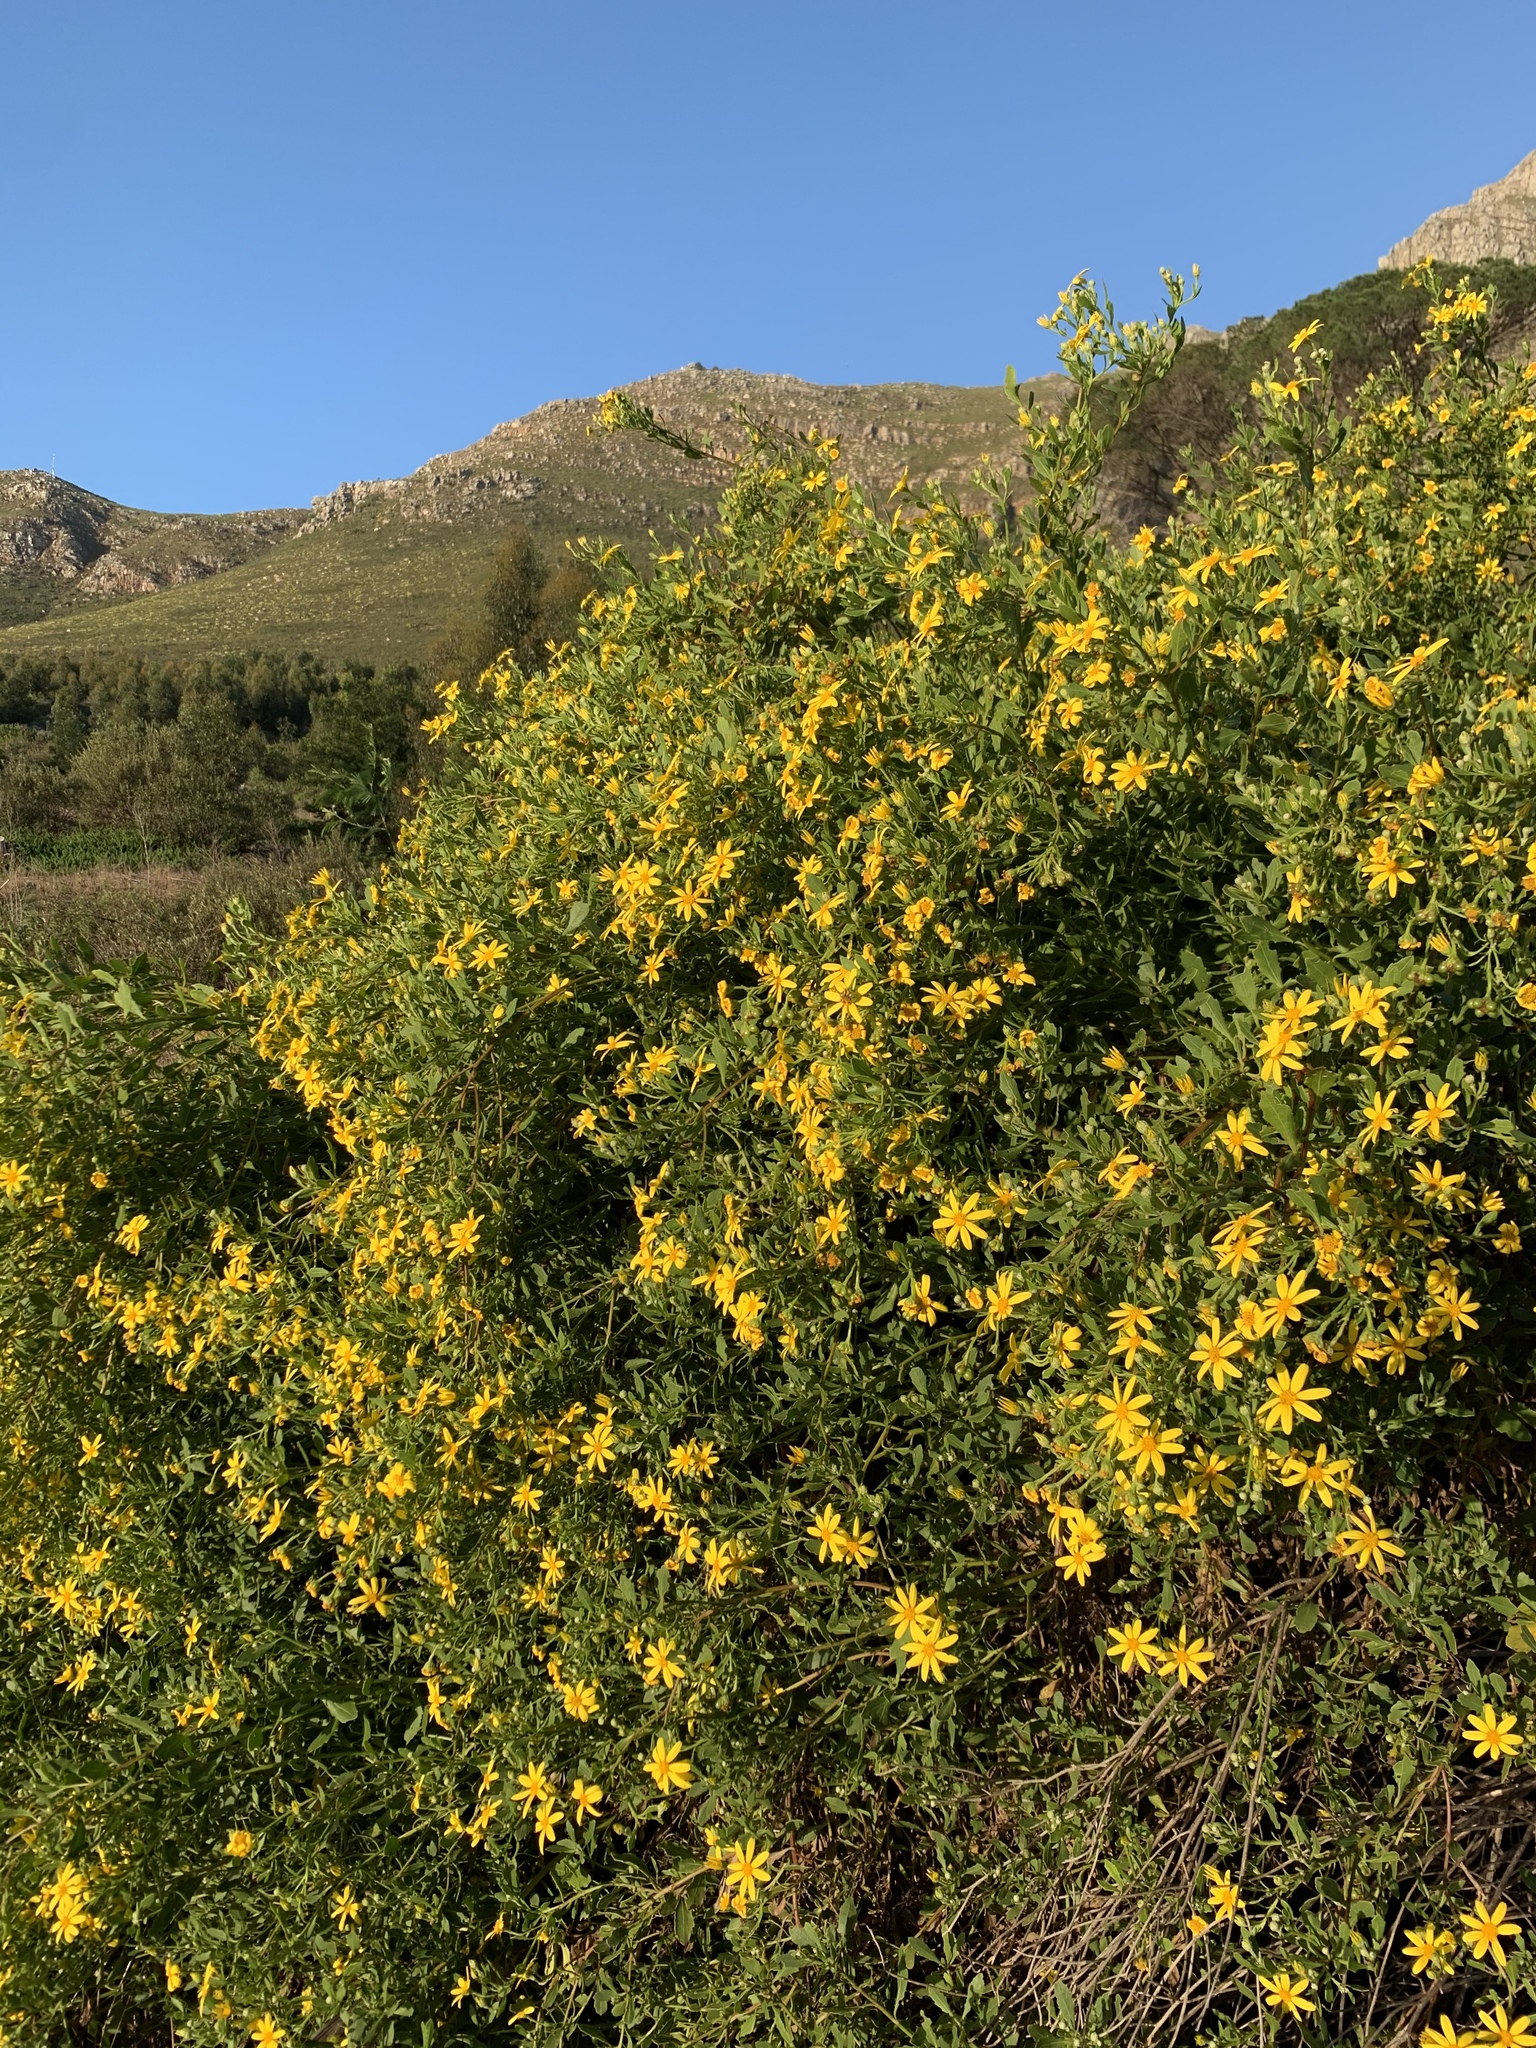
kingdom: Plantae
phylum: Tracheophyta
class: Magnoliopsida
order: Asterales
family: Asteraceae
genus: Osteospermum
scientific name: Osteospermum moniliferum
